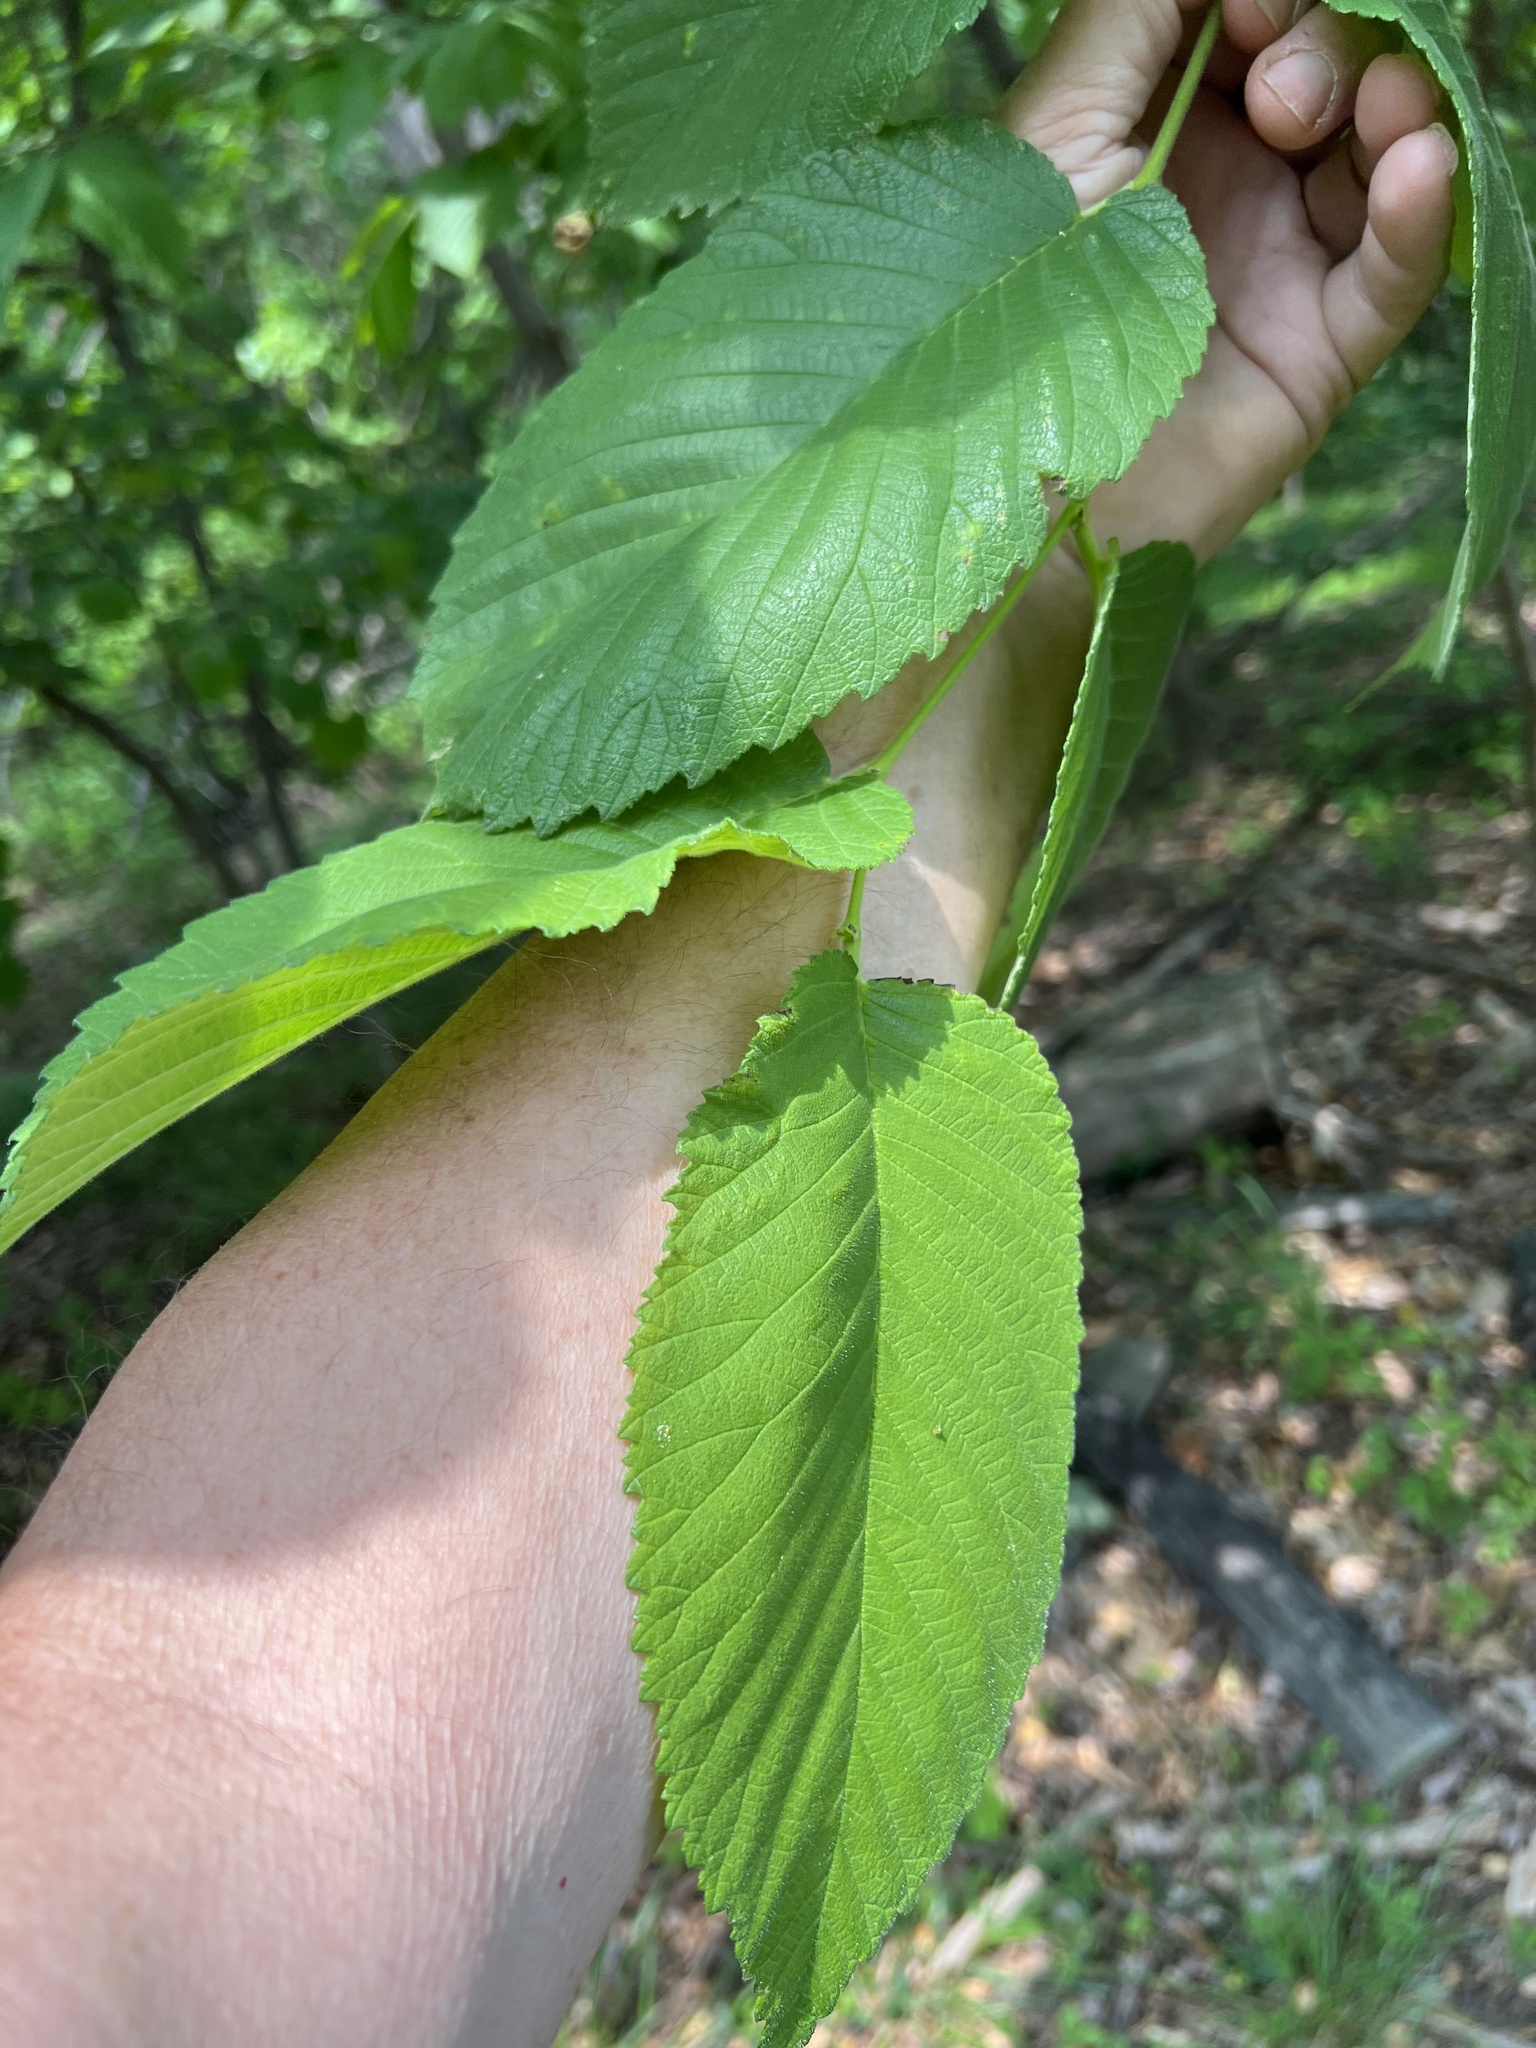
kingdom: Animalia
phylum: Arthropoda
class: Insecta
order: Hemiptera
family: Aphididae
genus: Tetraneura
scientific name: Tetraneura nigriabdominalis
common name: Aphid
